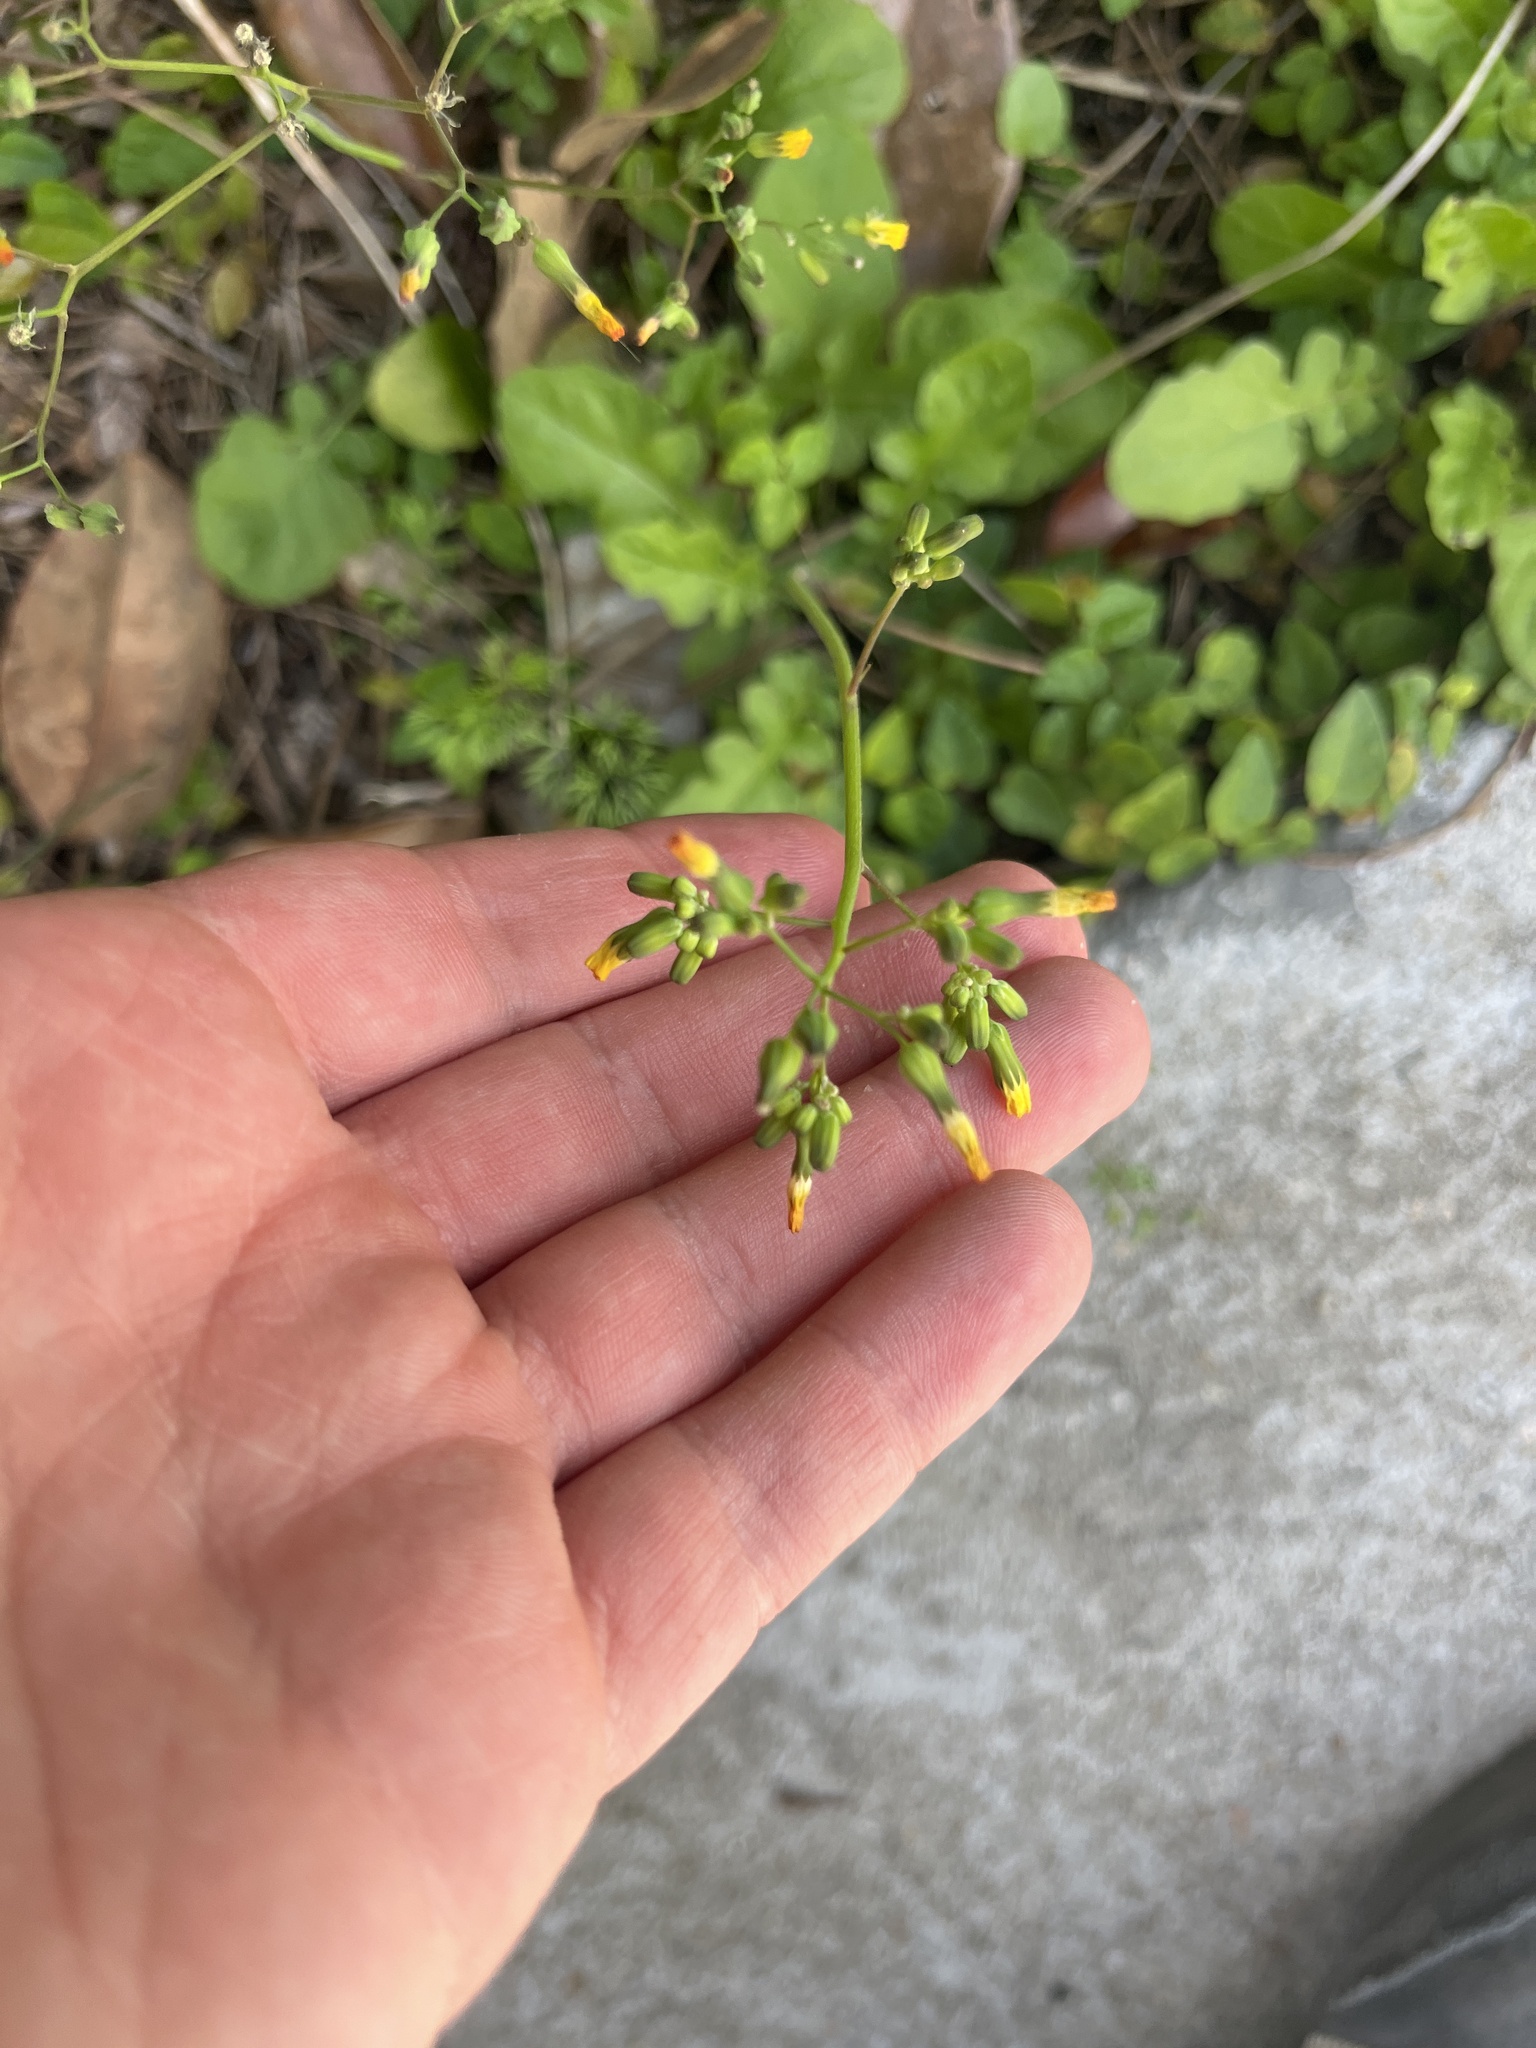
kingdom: Plantae
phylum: Tracheophyta
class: Magnoliopsida
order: Asterales
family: Asteraceae
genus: Youngia
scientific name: Youngia japonica
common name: Oriental false hawksbeard
